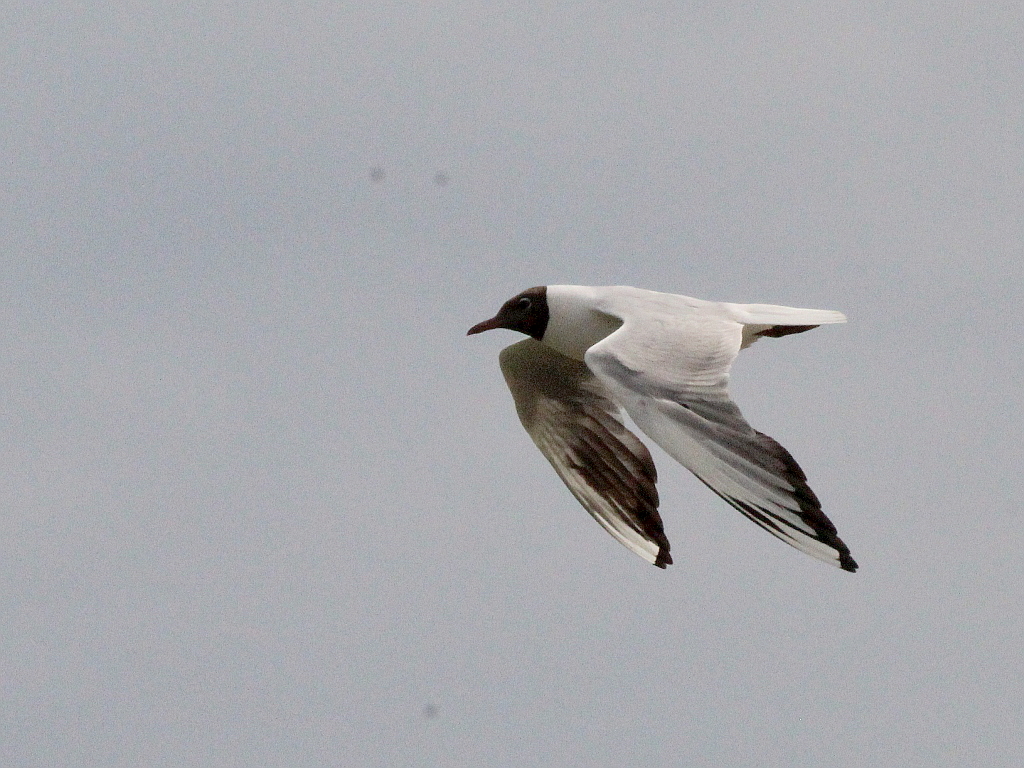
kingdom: Animalia
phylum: Chordata
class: Aves
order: Charadriiformes
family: Laridae
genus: Chroicocephalus
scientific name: Chroicocephalus ridibundus
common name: Black-headed gull
